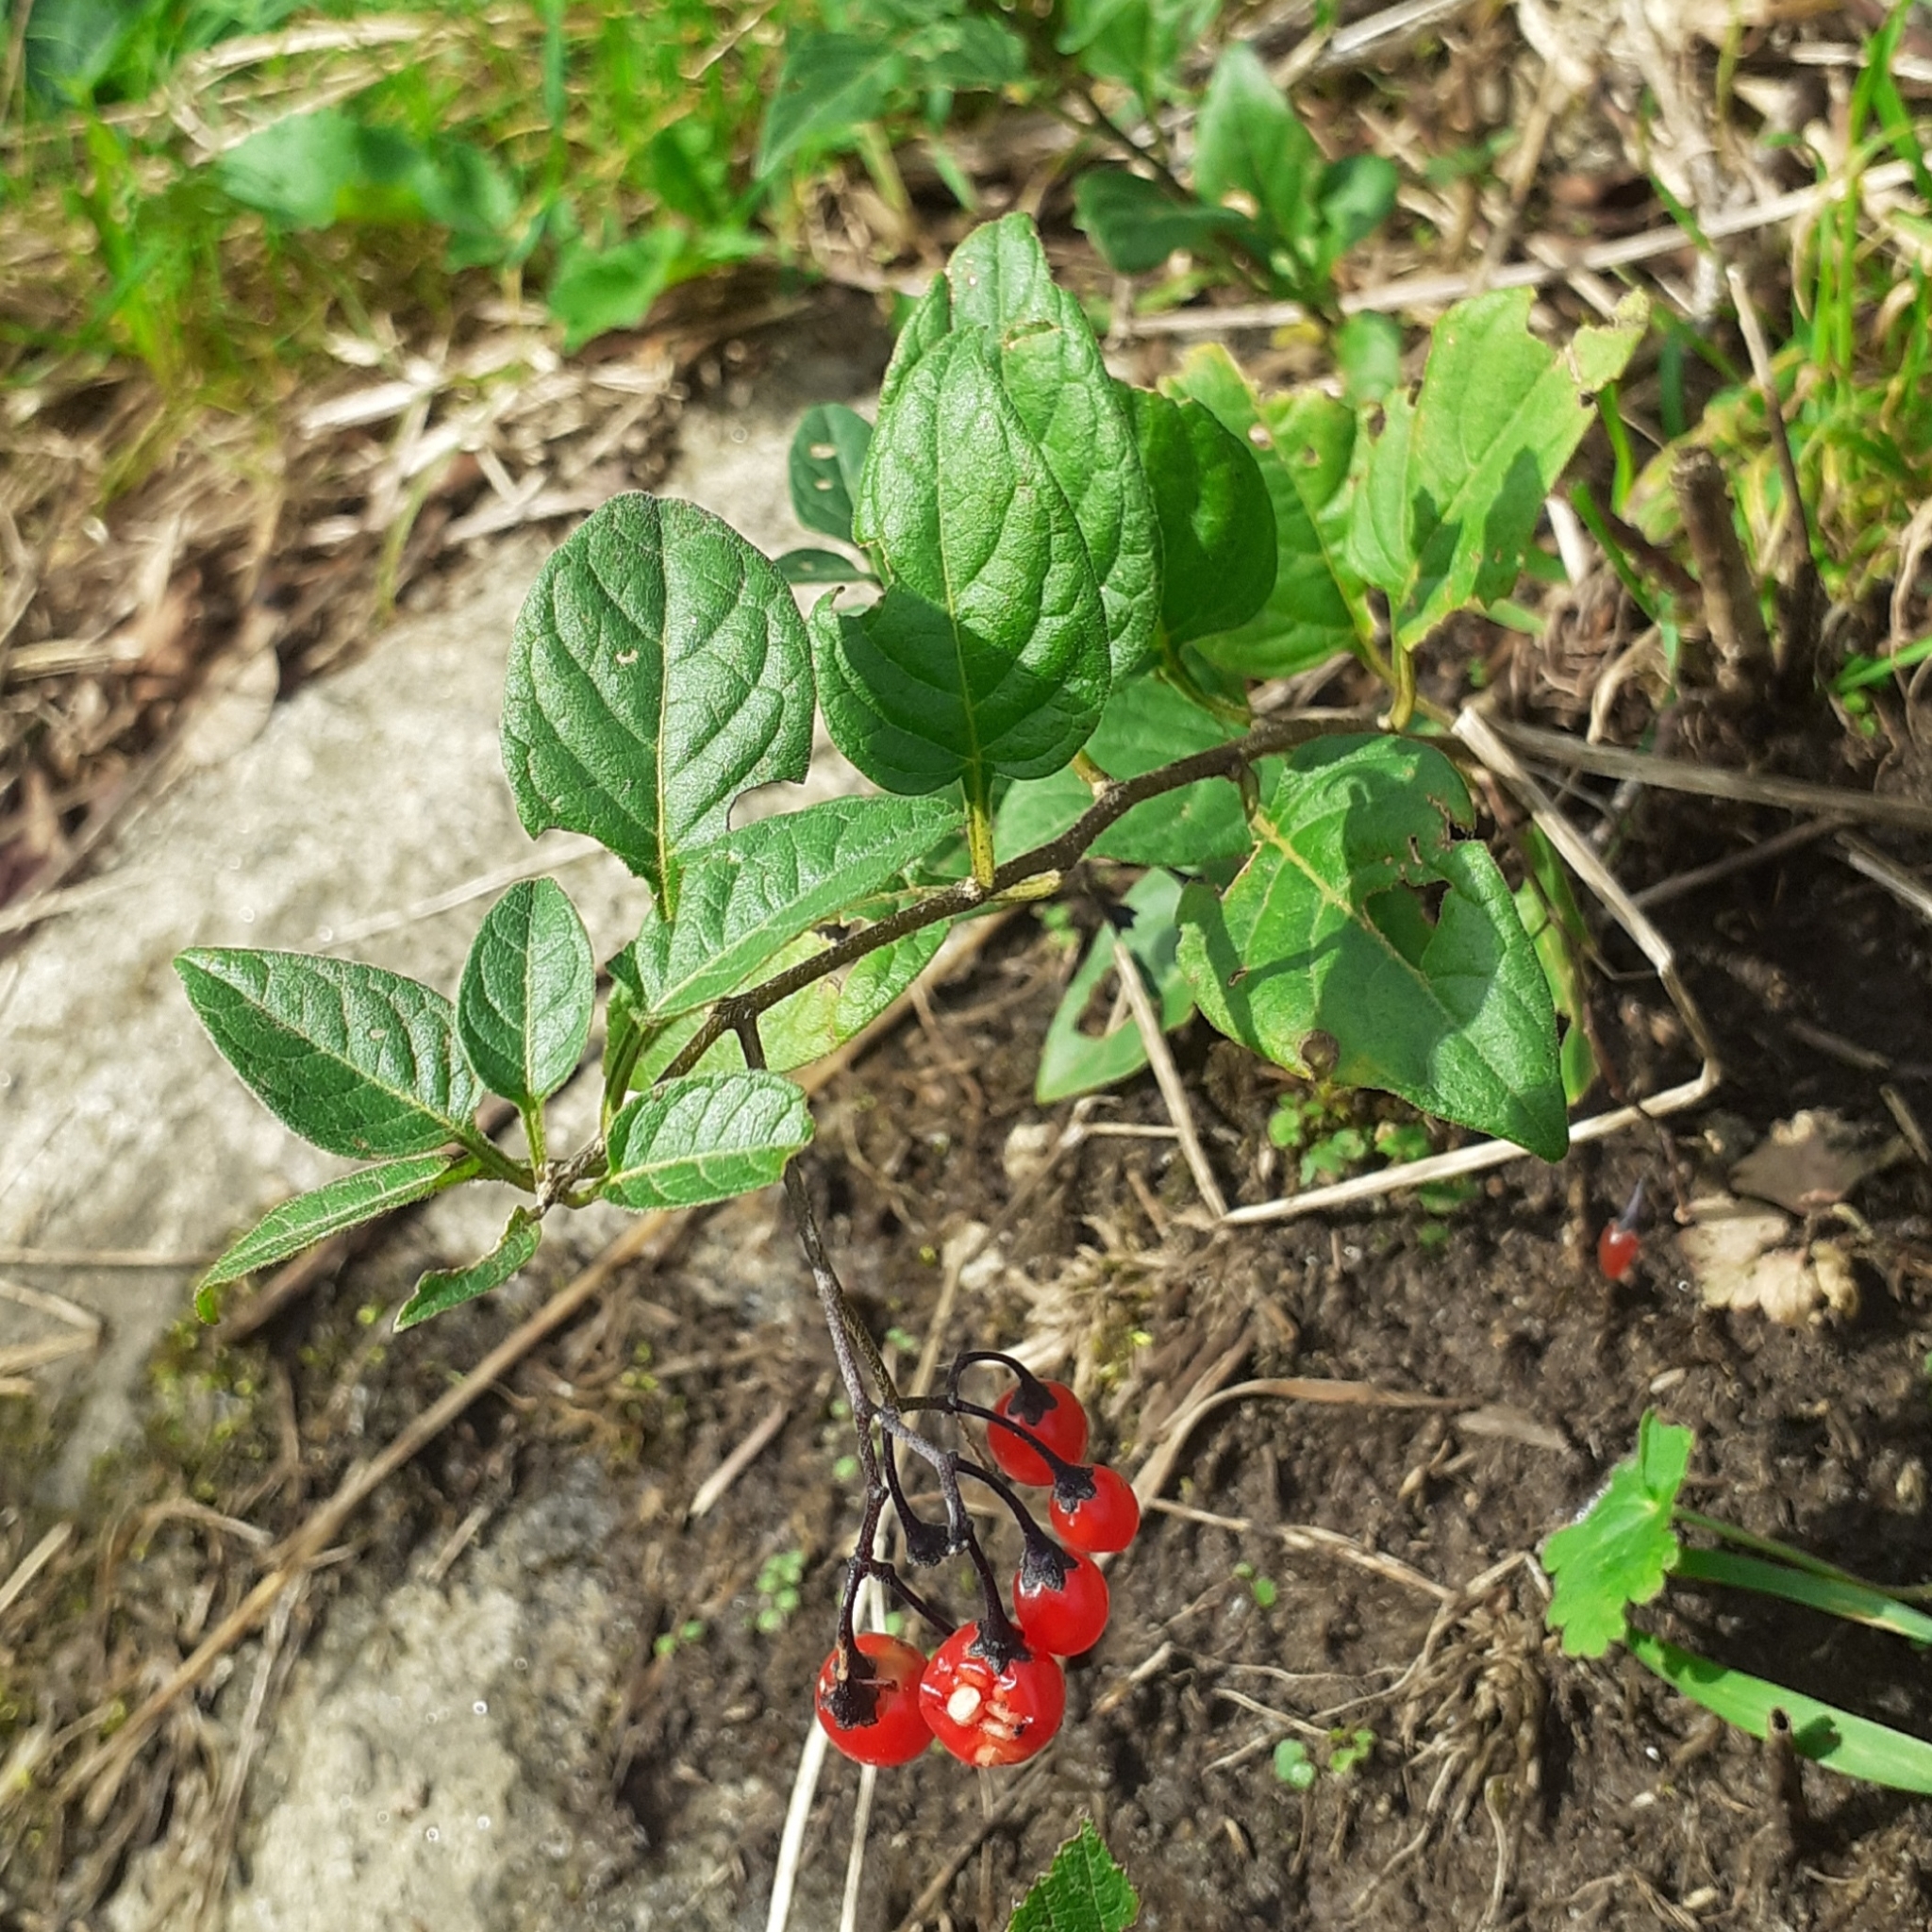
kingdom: Plantae
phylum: Tracheophyta
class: Magnoliopsida
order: Solanales
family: Solanaceae
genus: Solanum
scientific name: Solanum dulcamara
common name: Climbing nightshade
